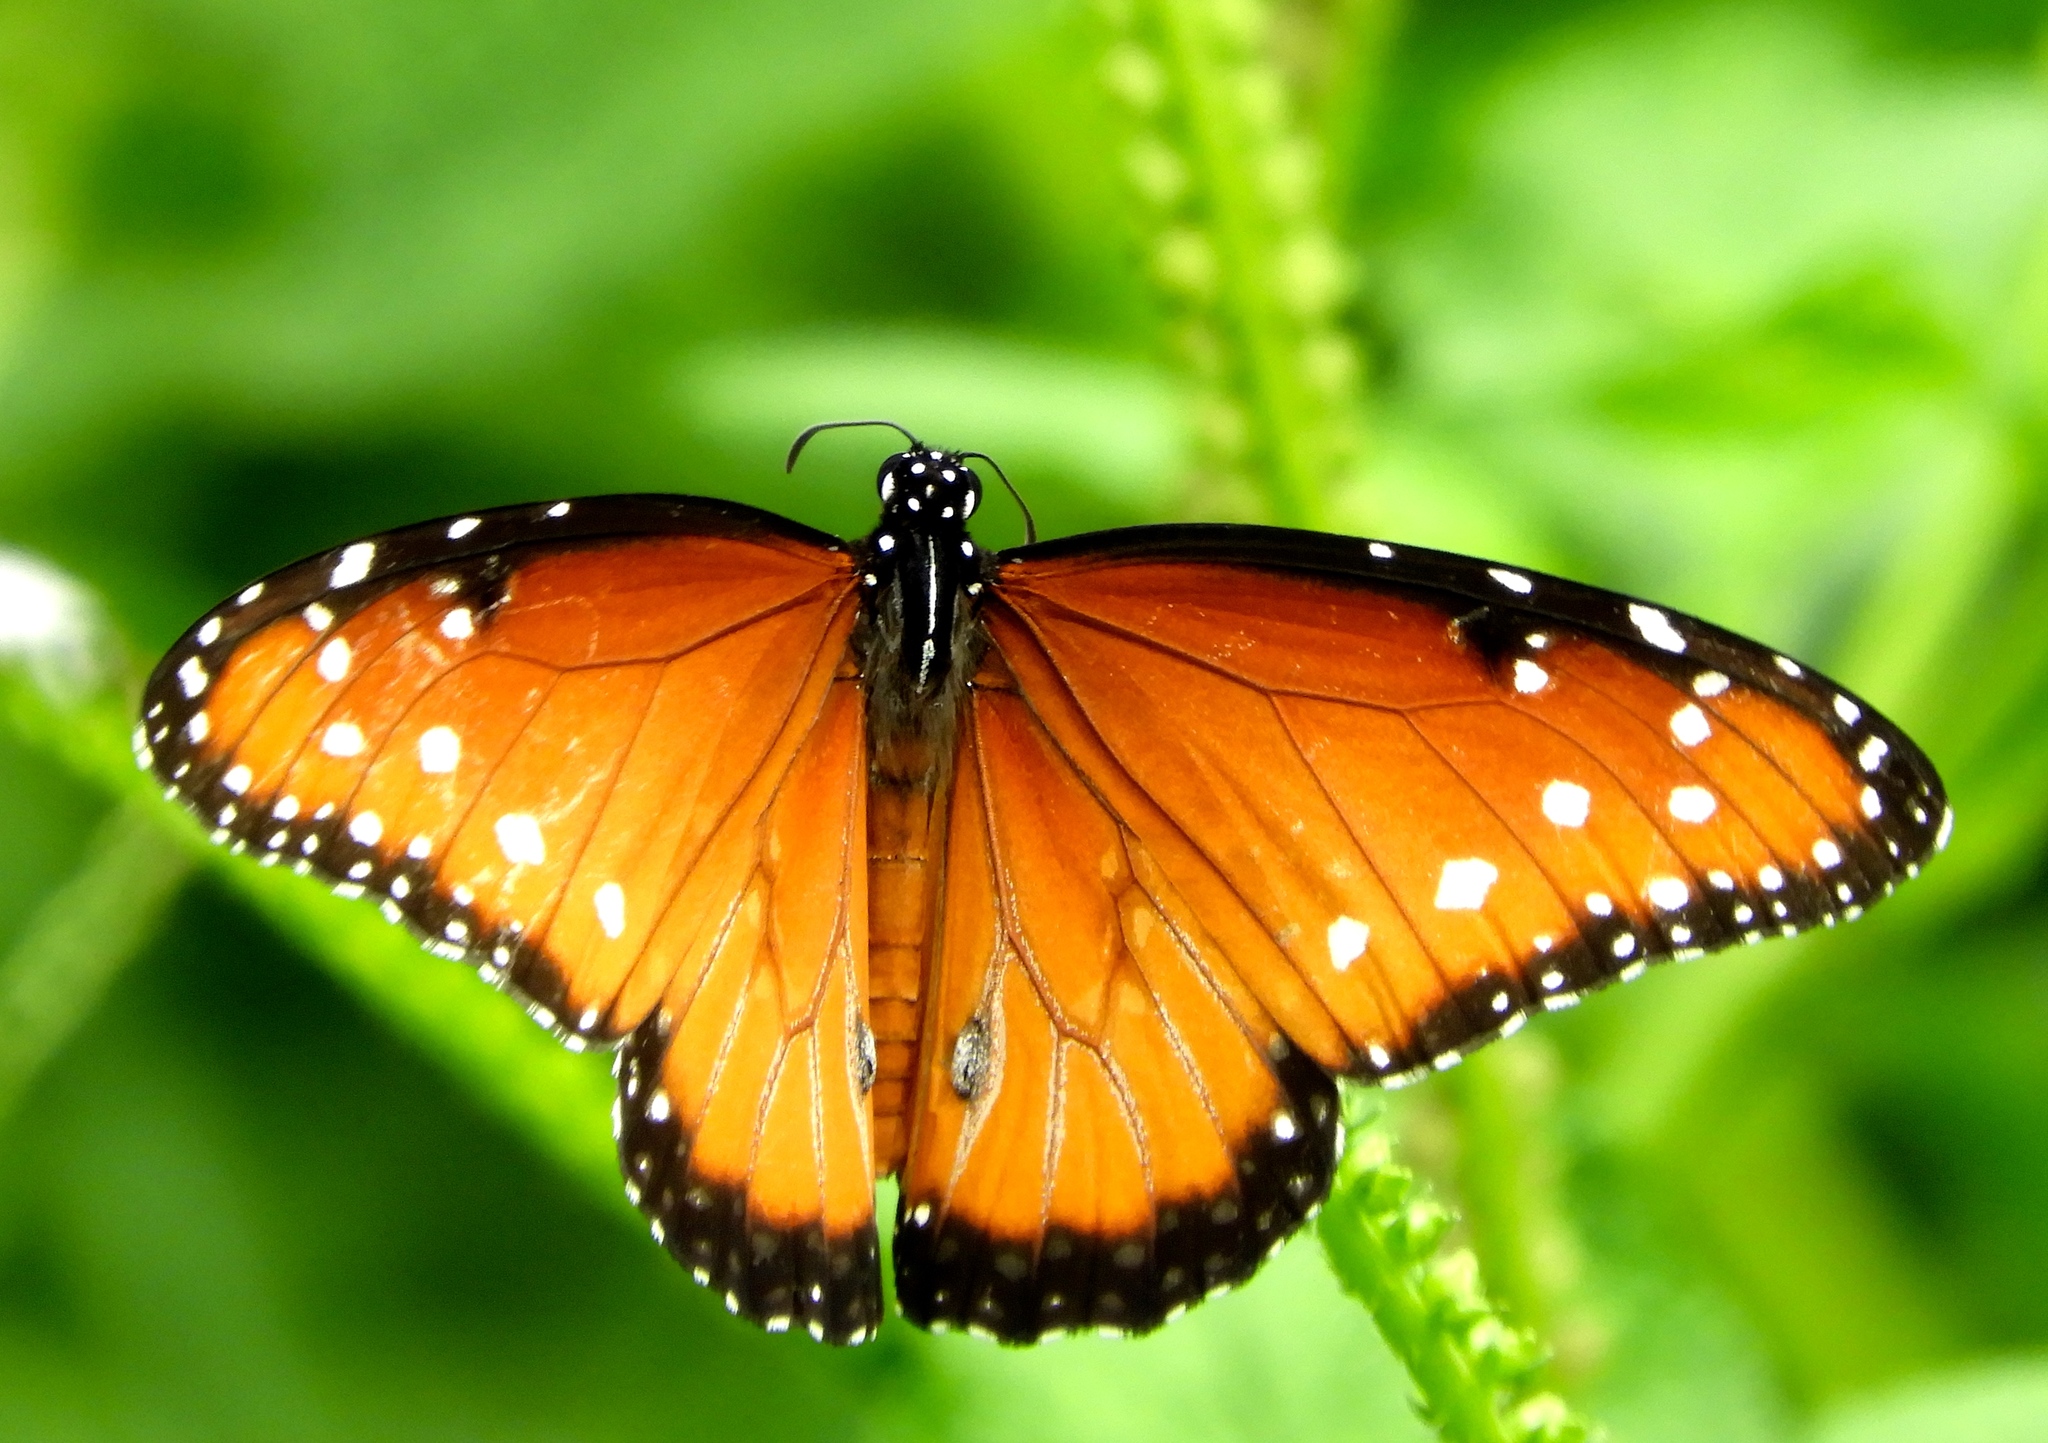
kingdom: Animalia
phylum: Arthropoda
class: Insecta
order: Lepidoptera
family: Nymphalidae
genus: Danaus
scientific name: Danaus gilippus
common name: Queen
